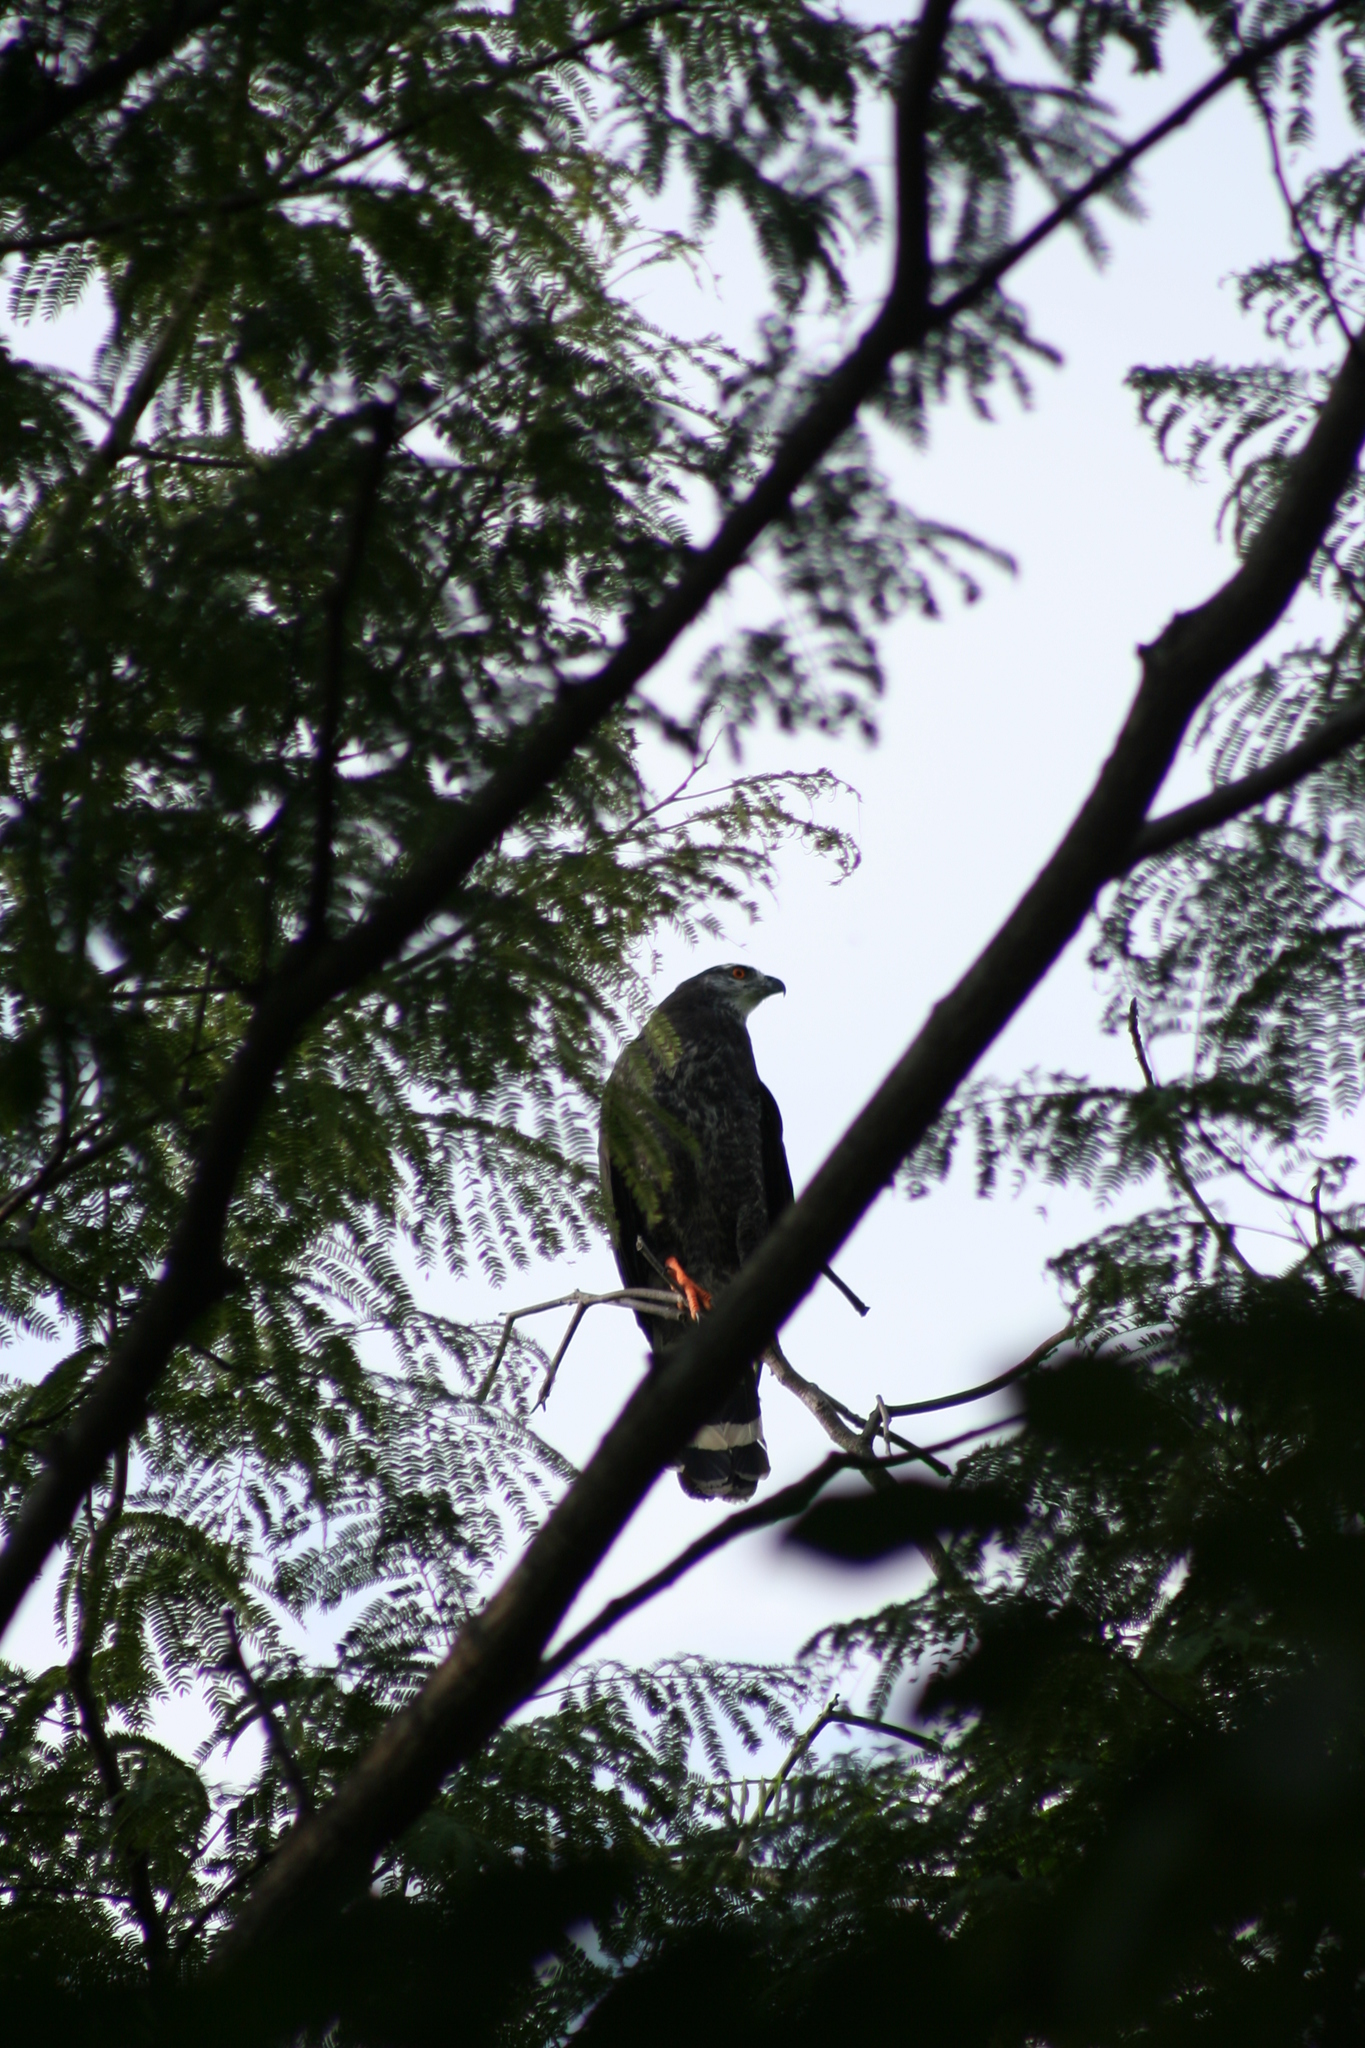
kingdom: Animalia
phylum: Chordata
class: Aves
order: Accipitriformes
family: Accipitridae
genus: Geranospiza
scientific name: Geranospiza caerulescens
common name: Crane hawk
